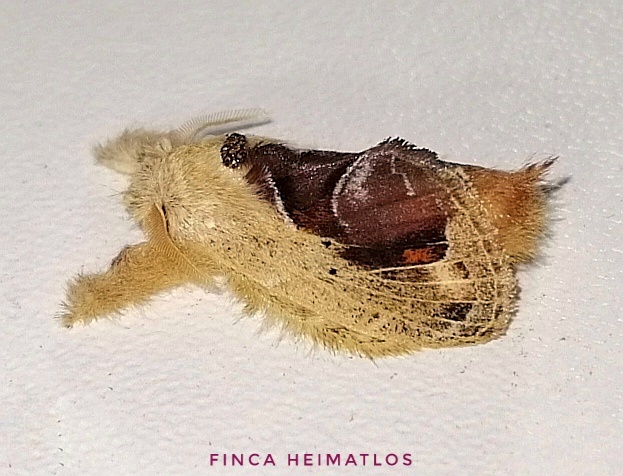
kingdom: Animalia
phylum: Arthropoda
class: Insecta
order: Lepidoptera
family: Lasiocampidae
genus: Nesara
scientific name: Nesara
